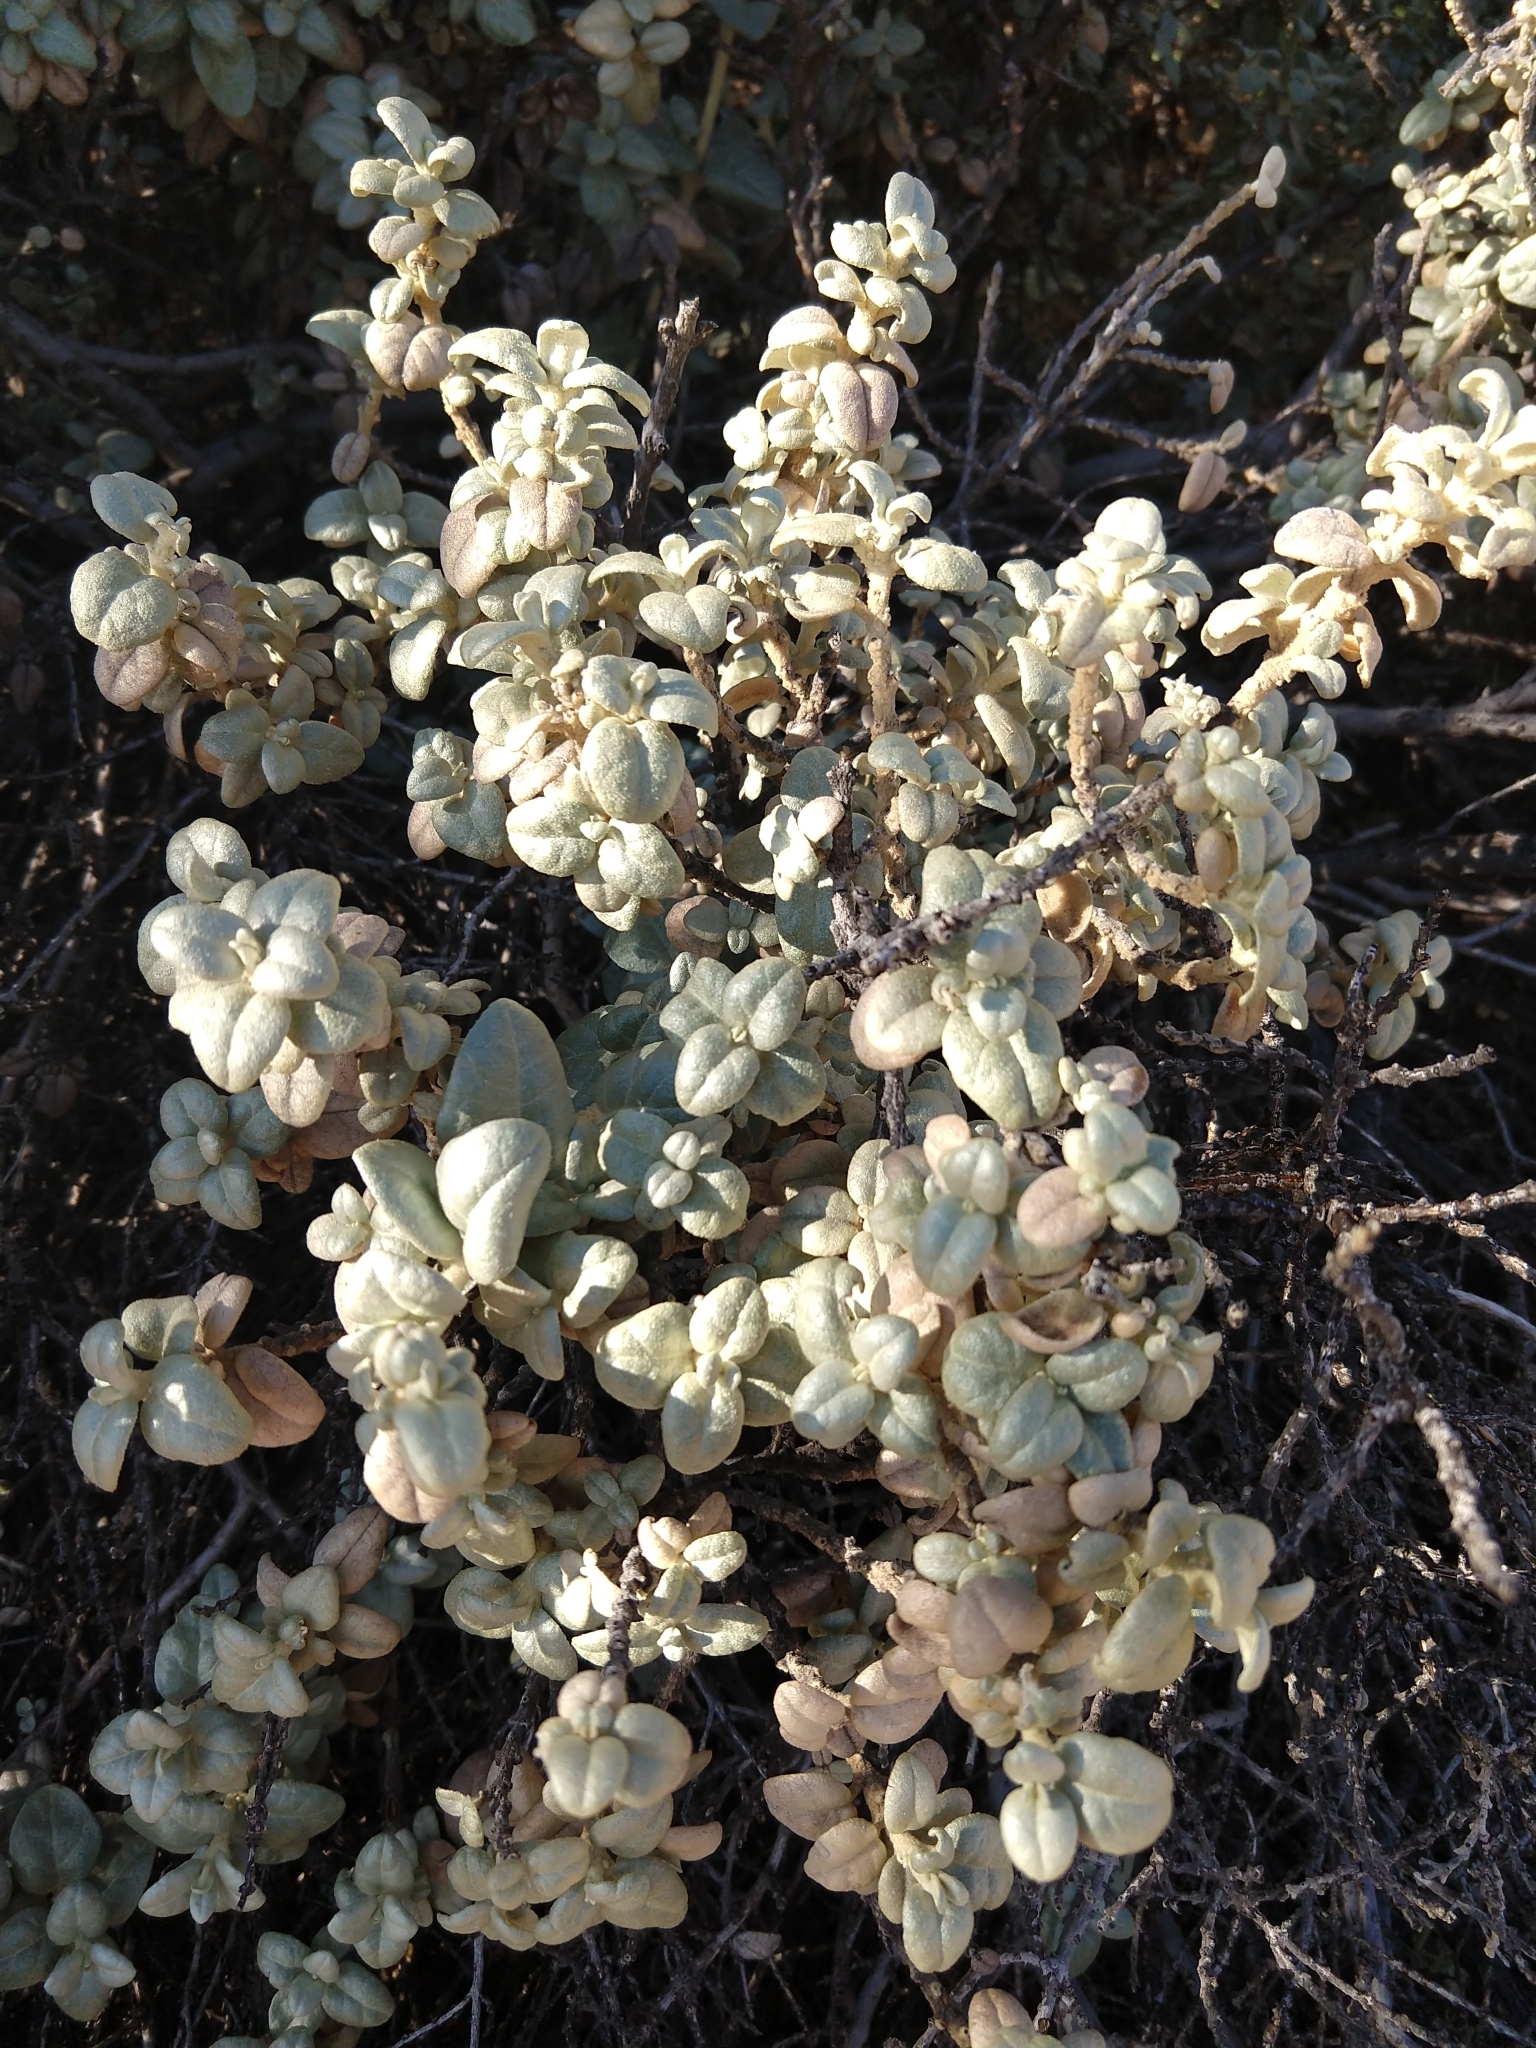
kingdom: Plantae
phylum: Tracheophyta
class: Magnoliopsida
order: Rosales
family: Elaeagnaceae
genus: Shepherdia
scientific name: Shepherdia rotundifolia
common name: Silverscale
